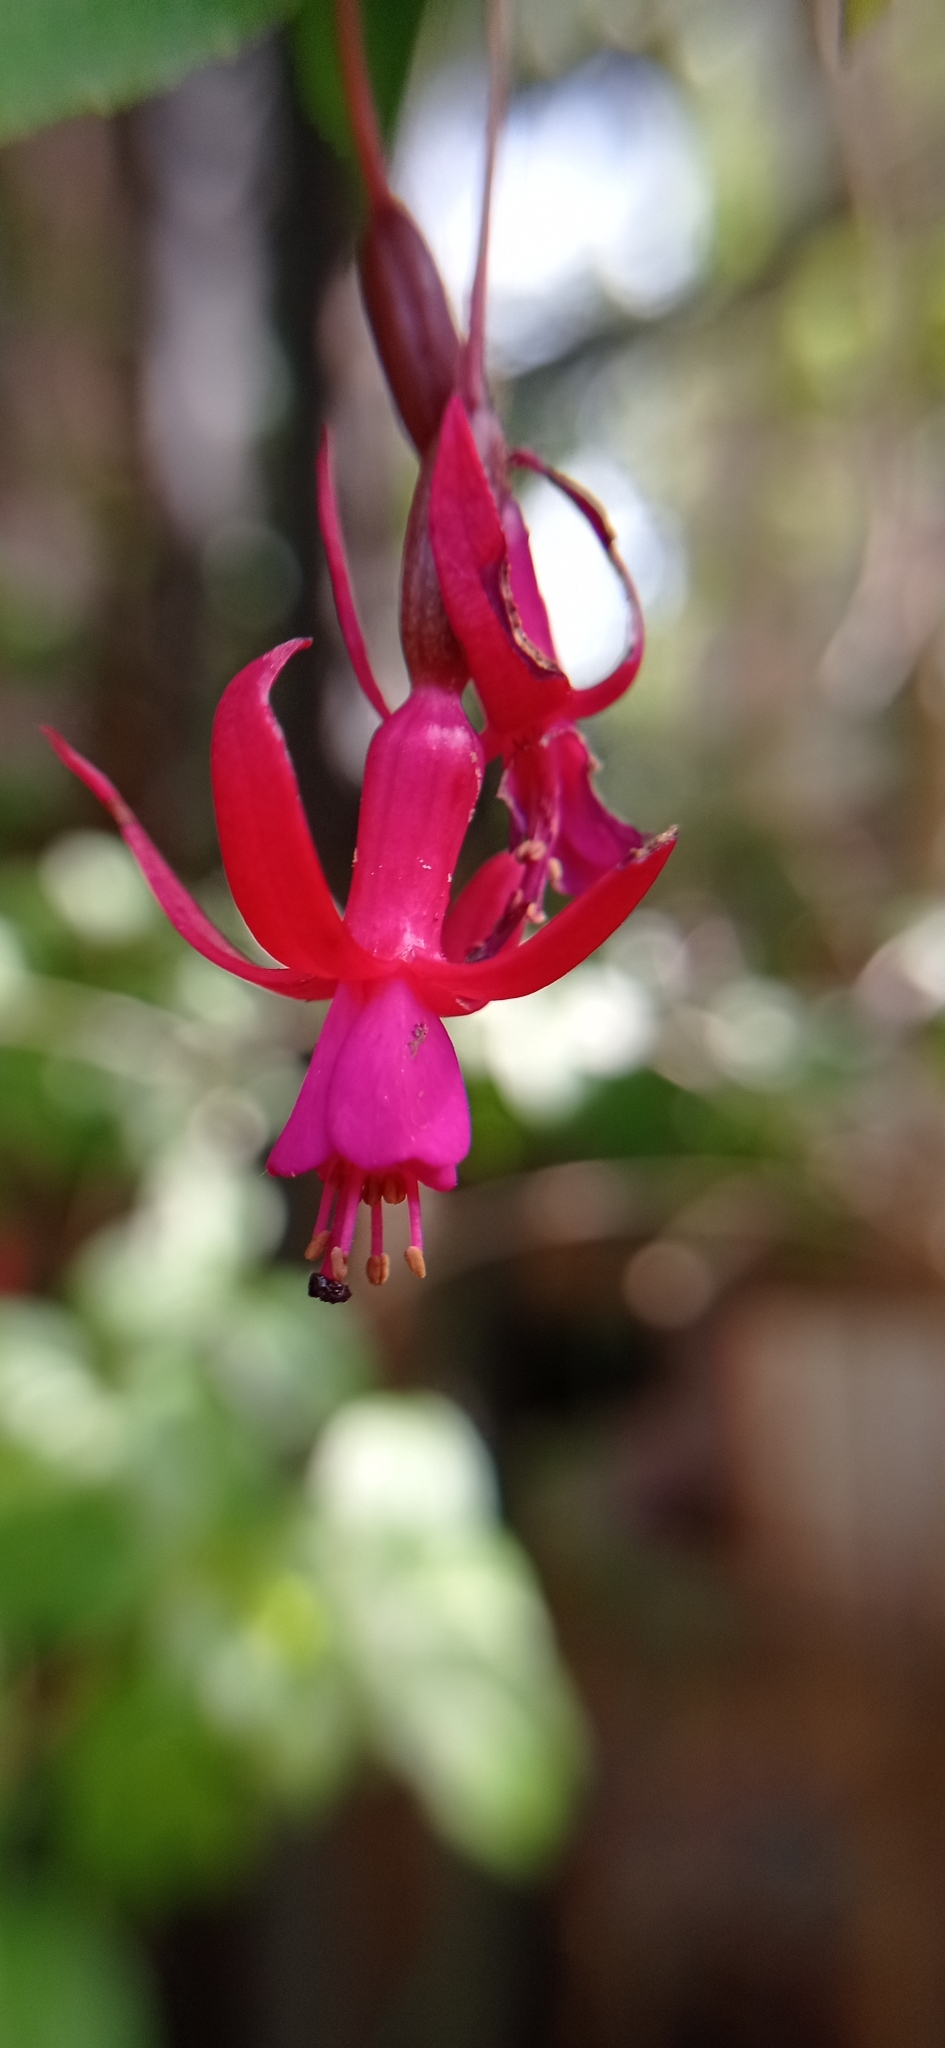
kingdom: Plantae
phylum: Tracheophyta
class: Magnoliopsida
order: Myrtales
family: Onagraceae
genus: Fuchsia
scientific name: Fuchsia magellanica
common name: Hardy fuchsia
